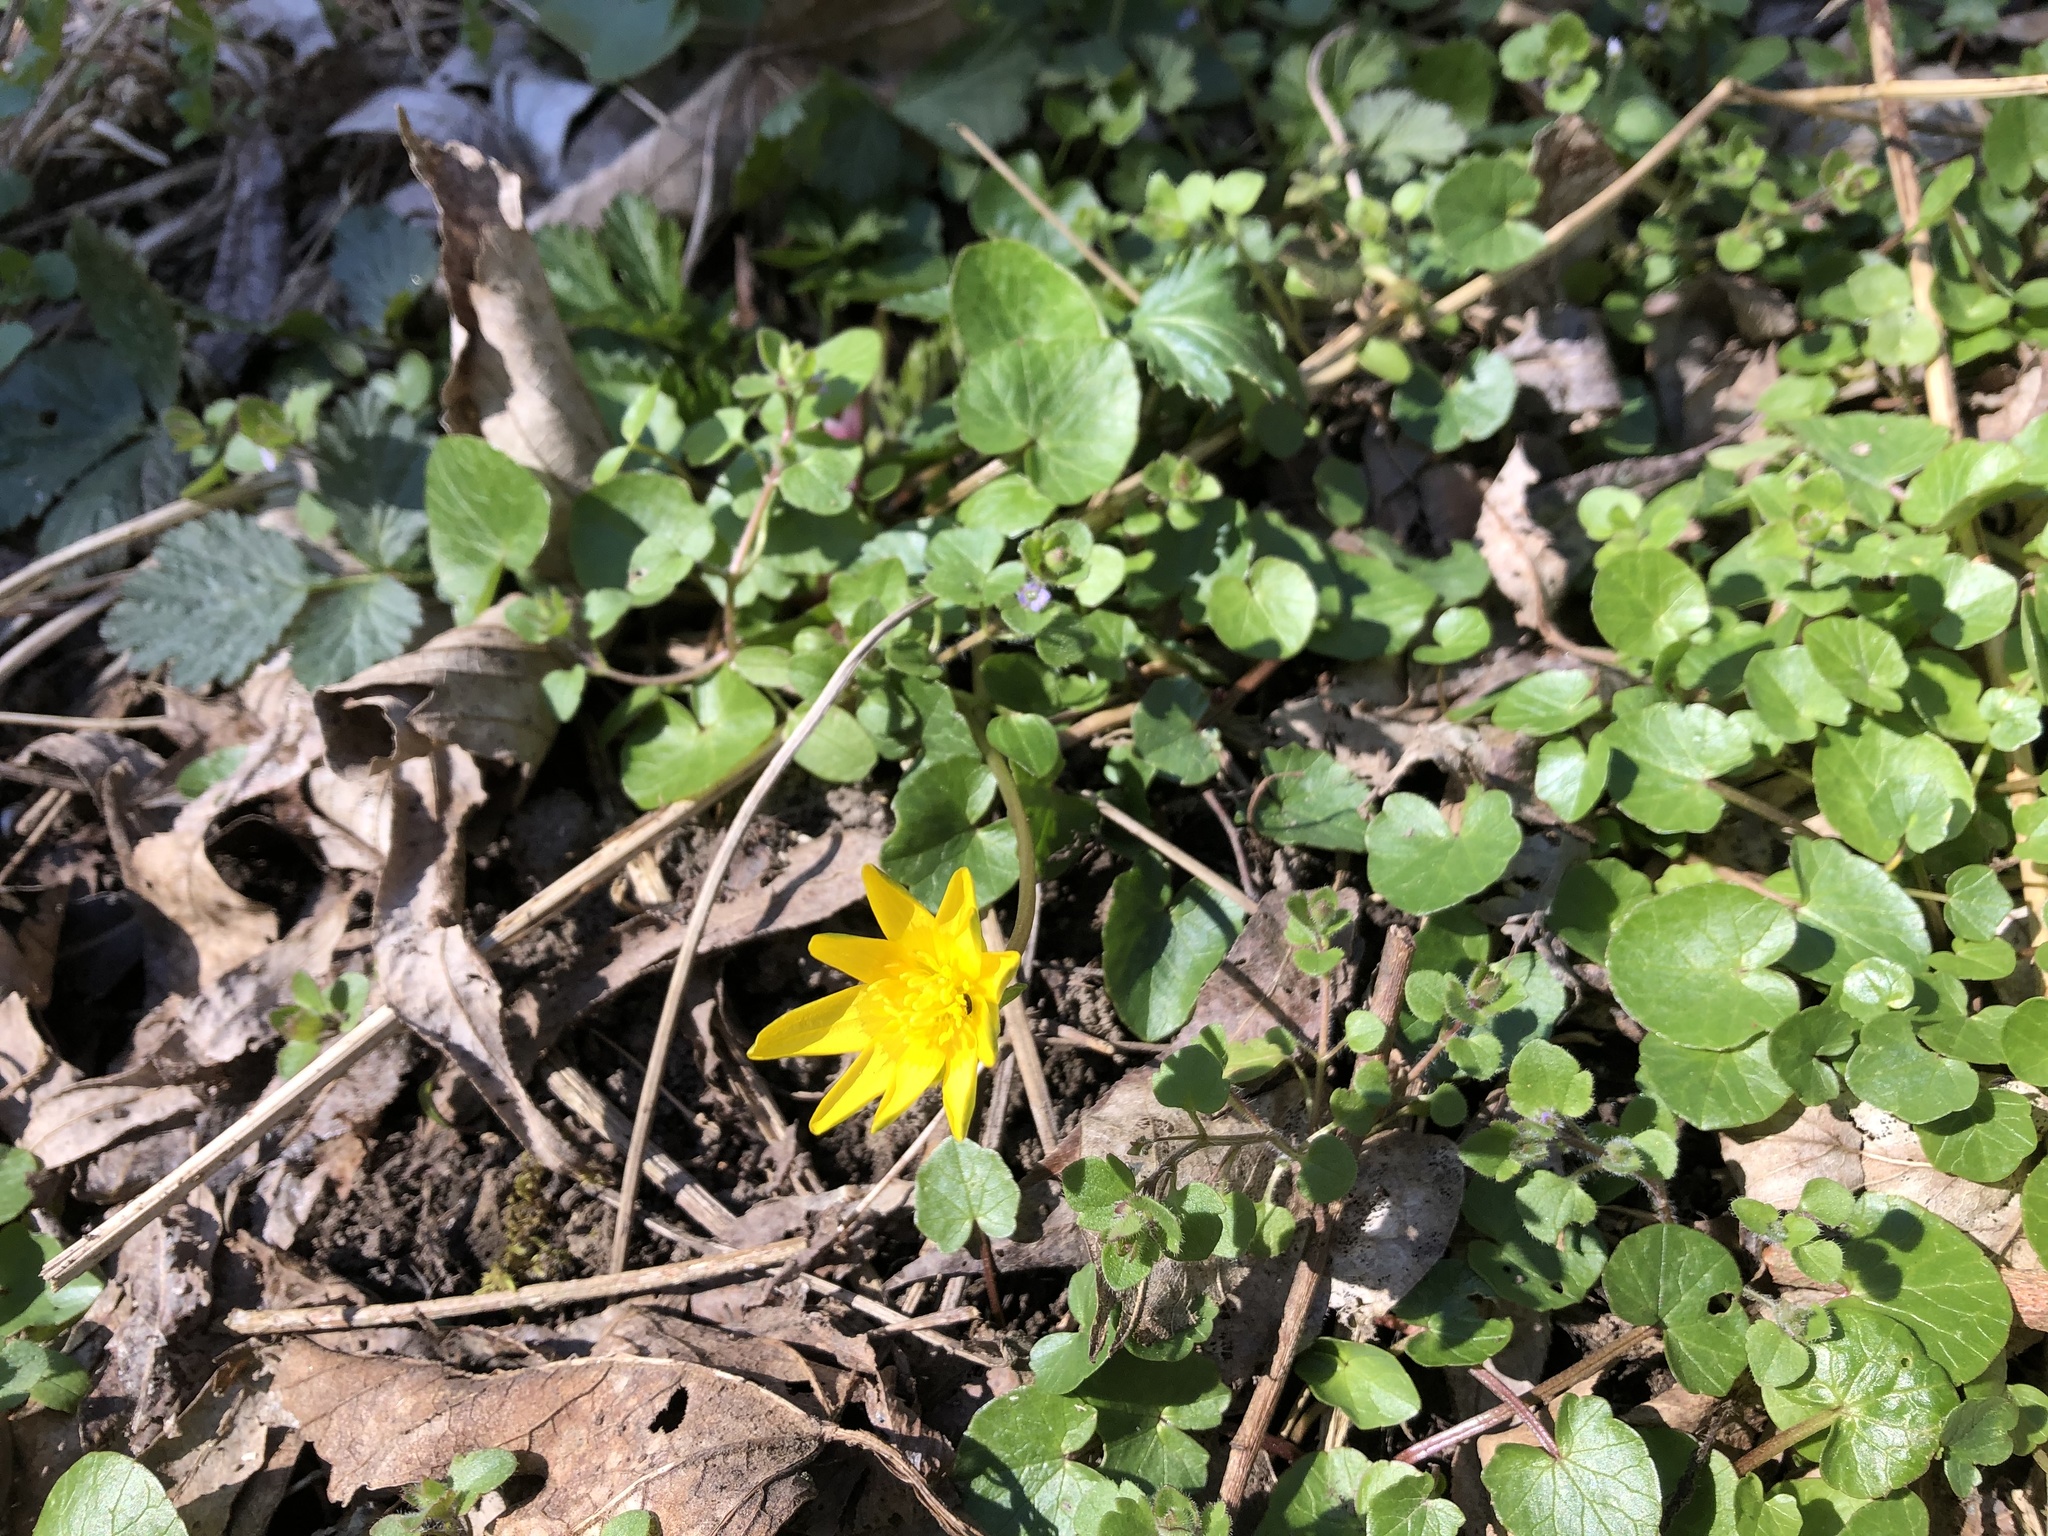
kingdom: Plantae
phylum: Tracheophyta
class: Magnoliopsida
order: Ranunculales
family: Ranunculaceae
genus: Ficaria
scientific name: Ficaria verna
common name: Lesser celandine
